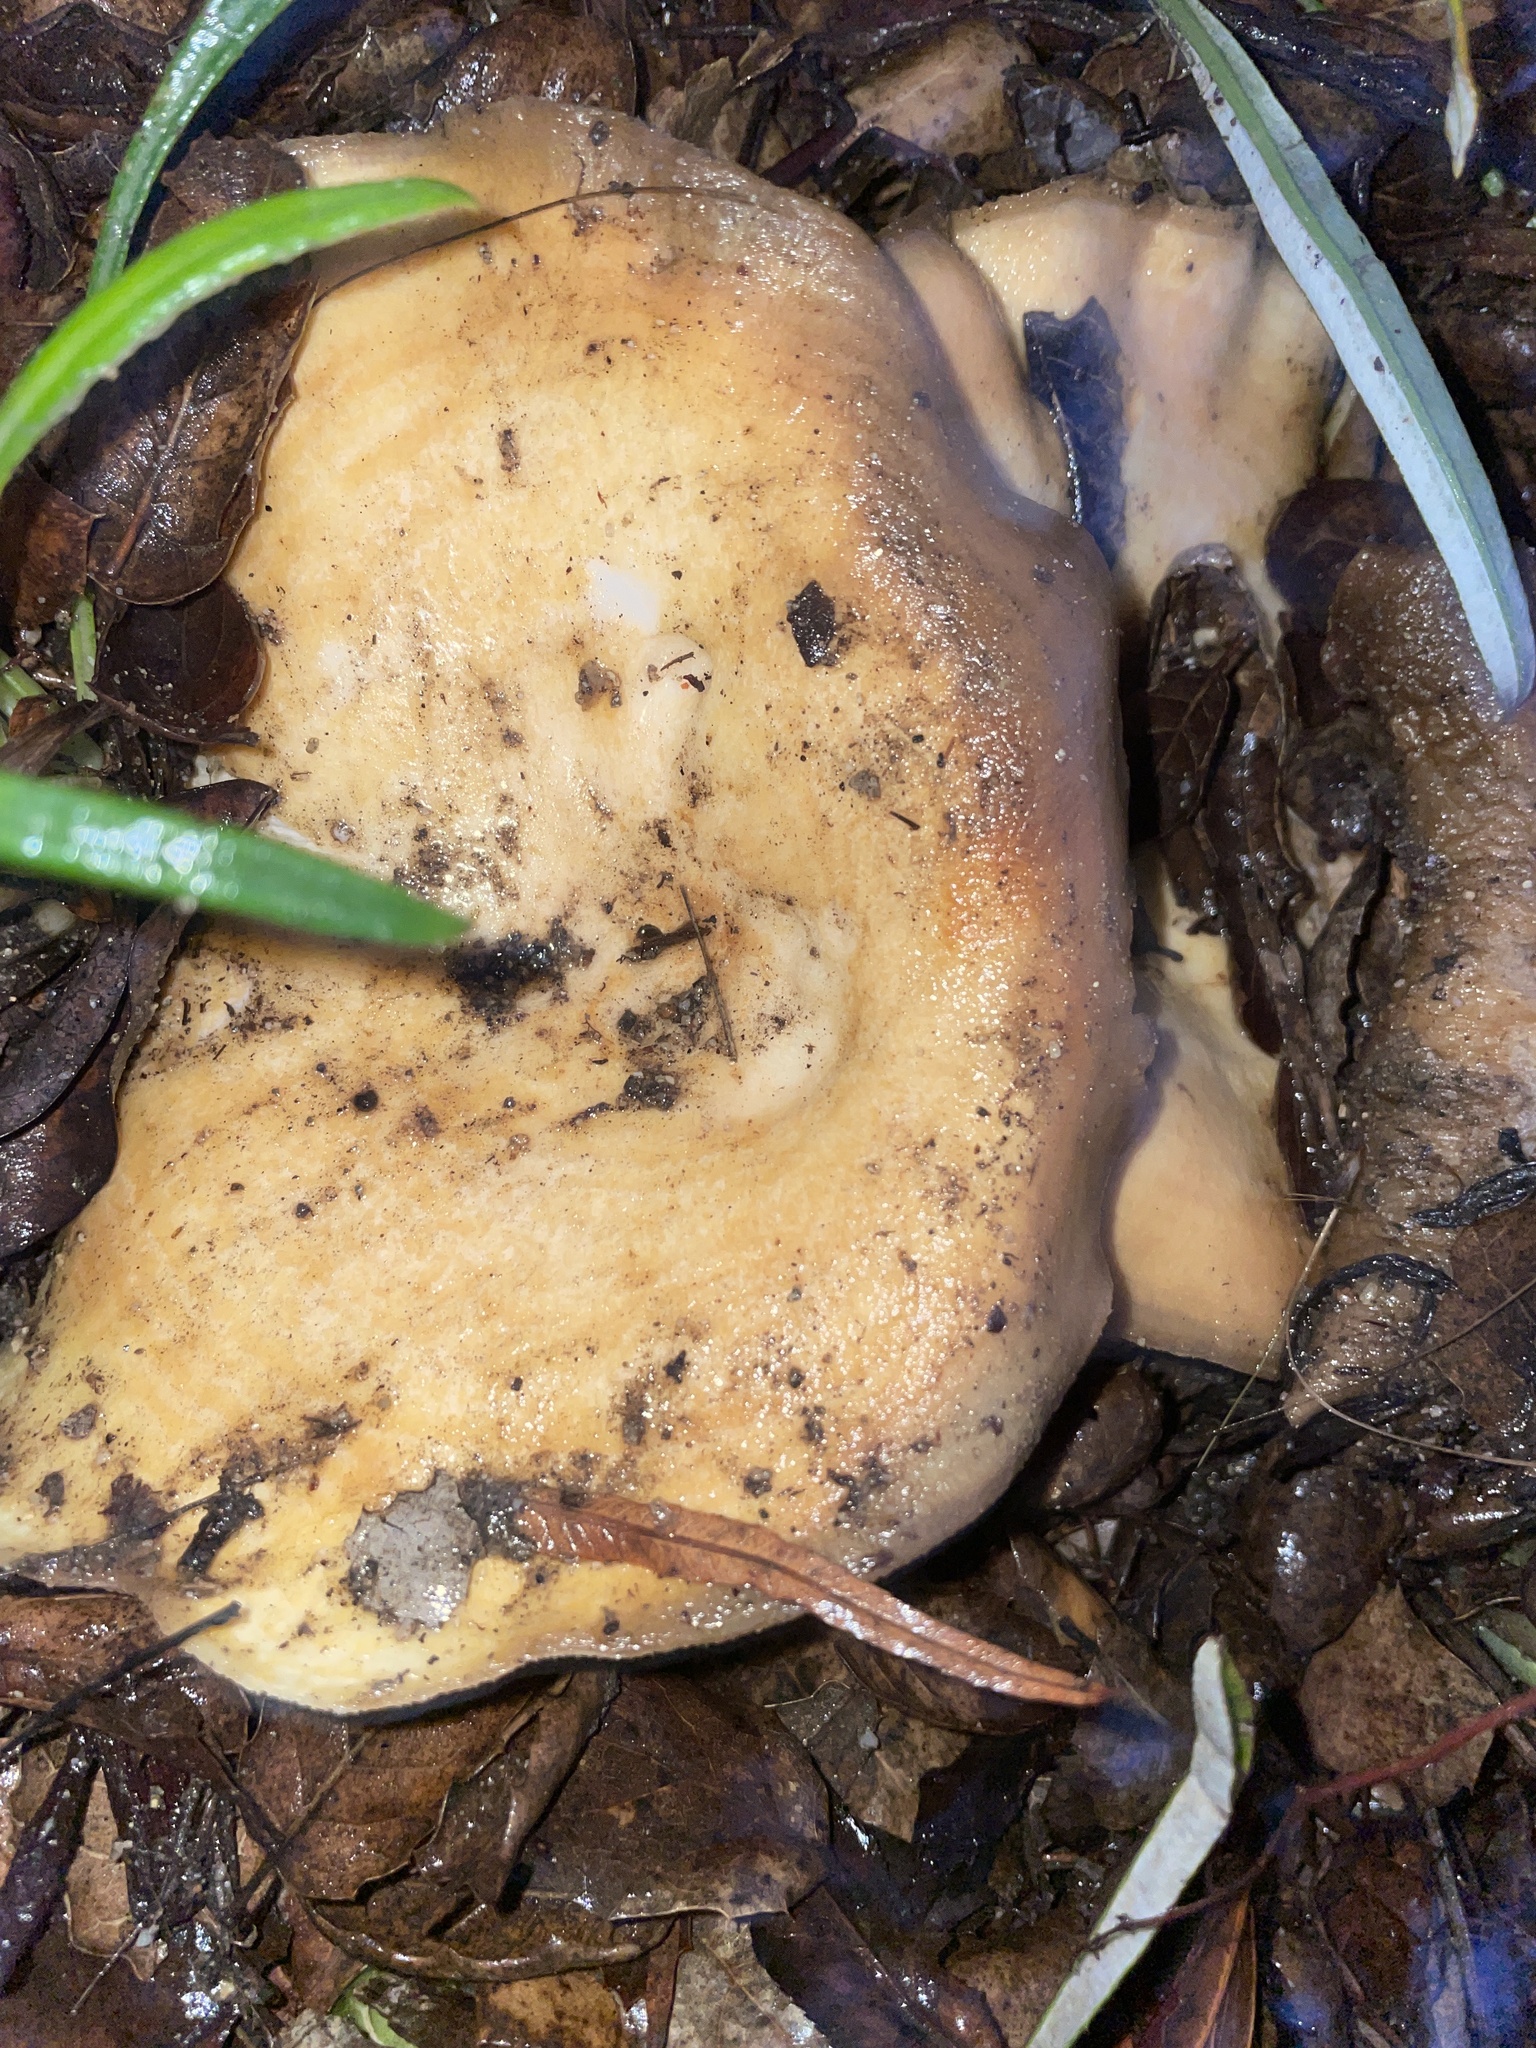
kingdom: Fungi
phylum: Basidiomycota
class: Agaricomycetes
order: Russulales
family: Russulaceae
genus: Lactarius
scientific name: Lactarius alnicola
